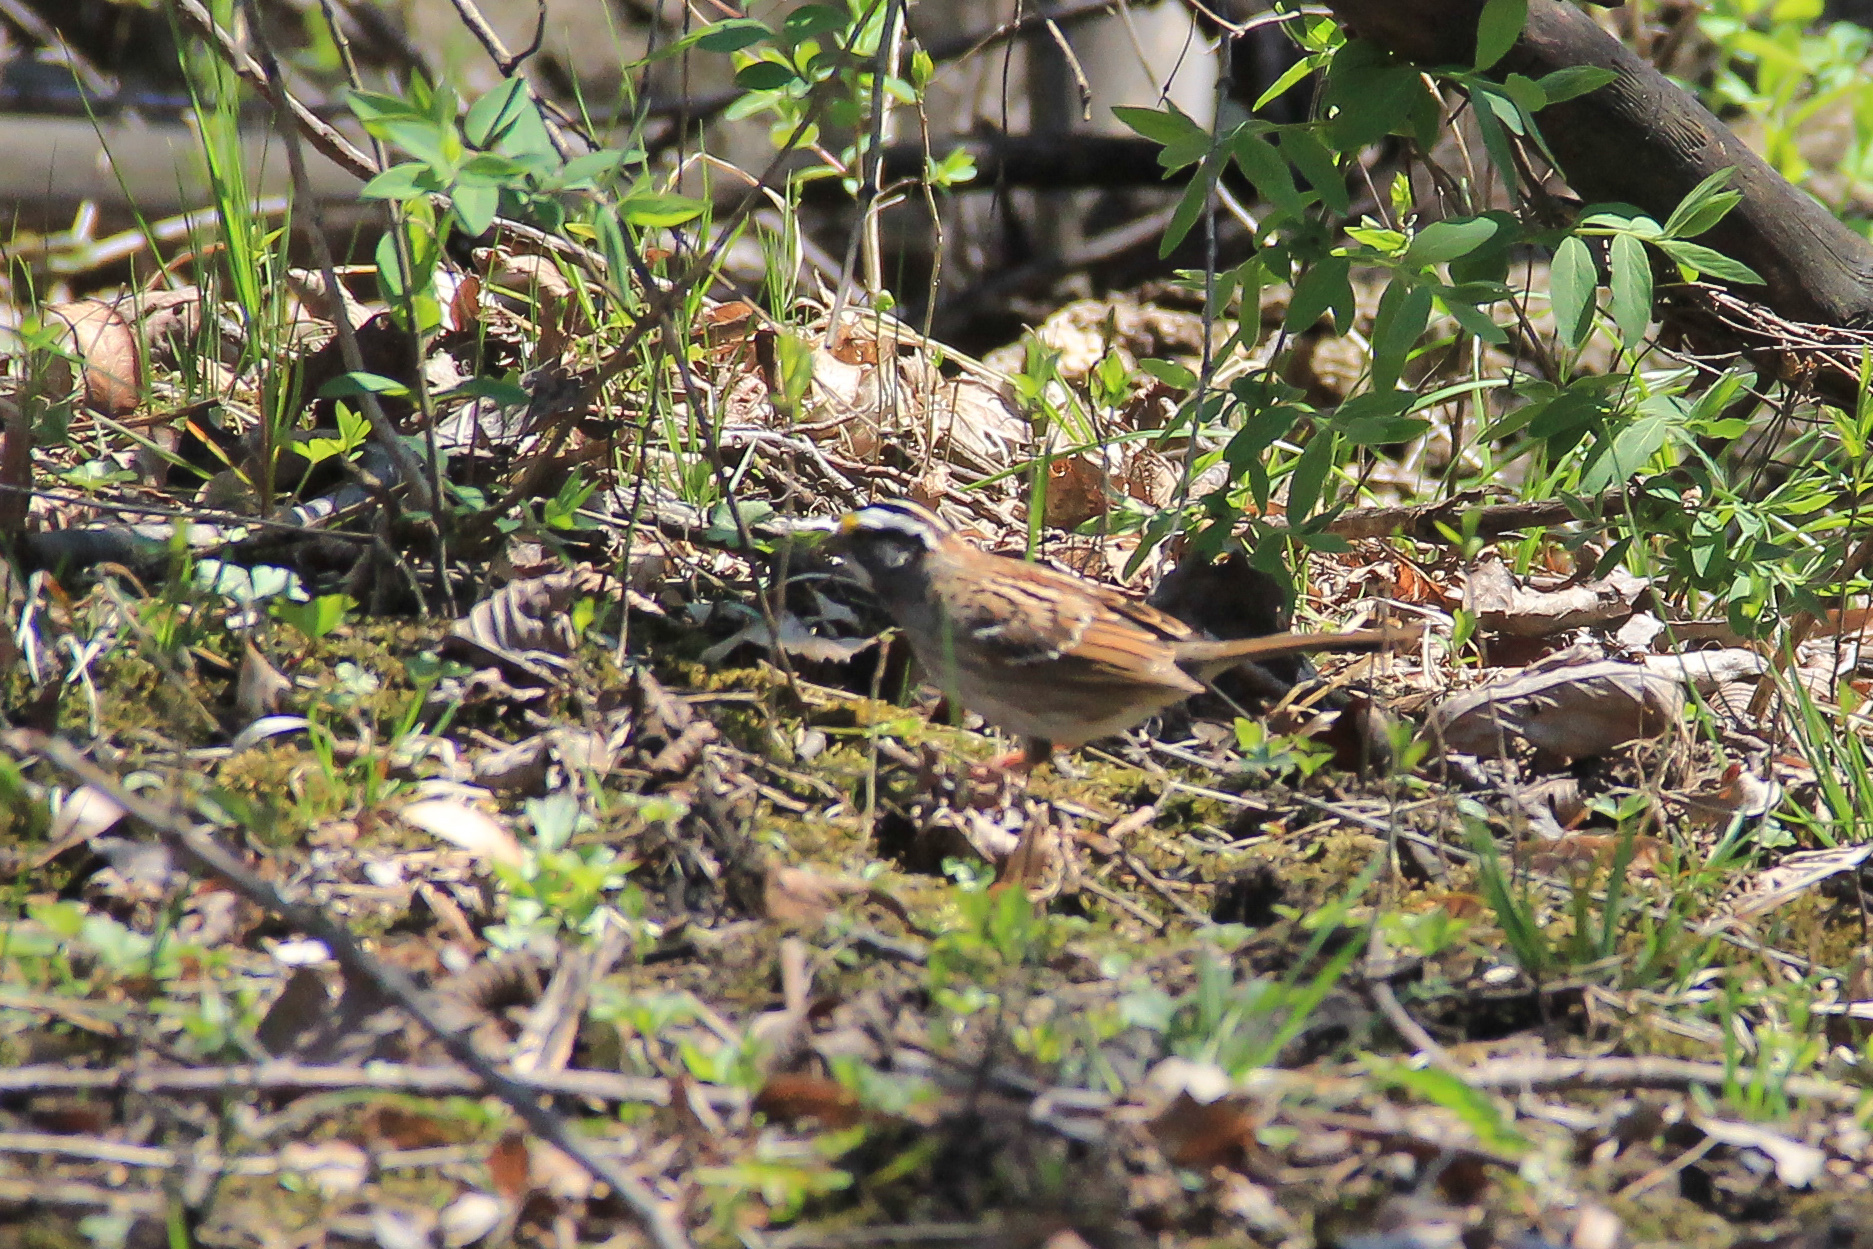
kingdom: Animalia
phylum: Chordata
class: Aves
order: Passeriformes
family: Passerellidae
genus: Zonotrichia
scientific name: Zonotrichia albicollis
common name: White-throated sparrow
